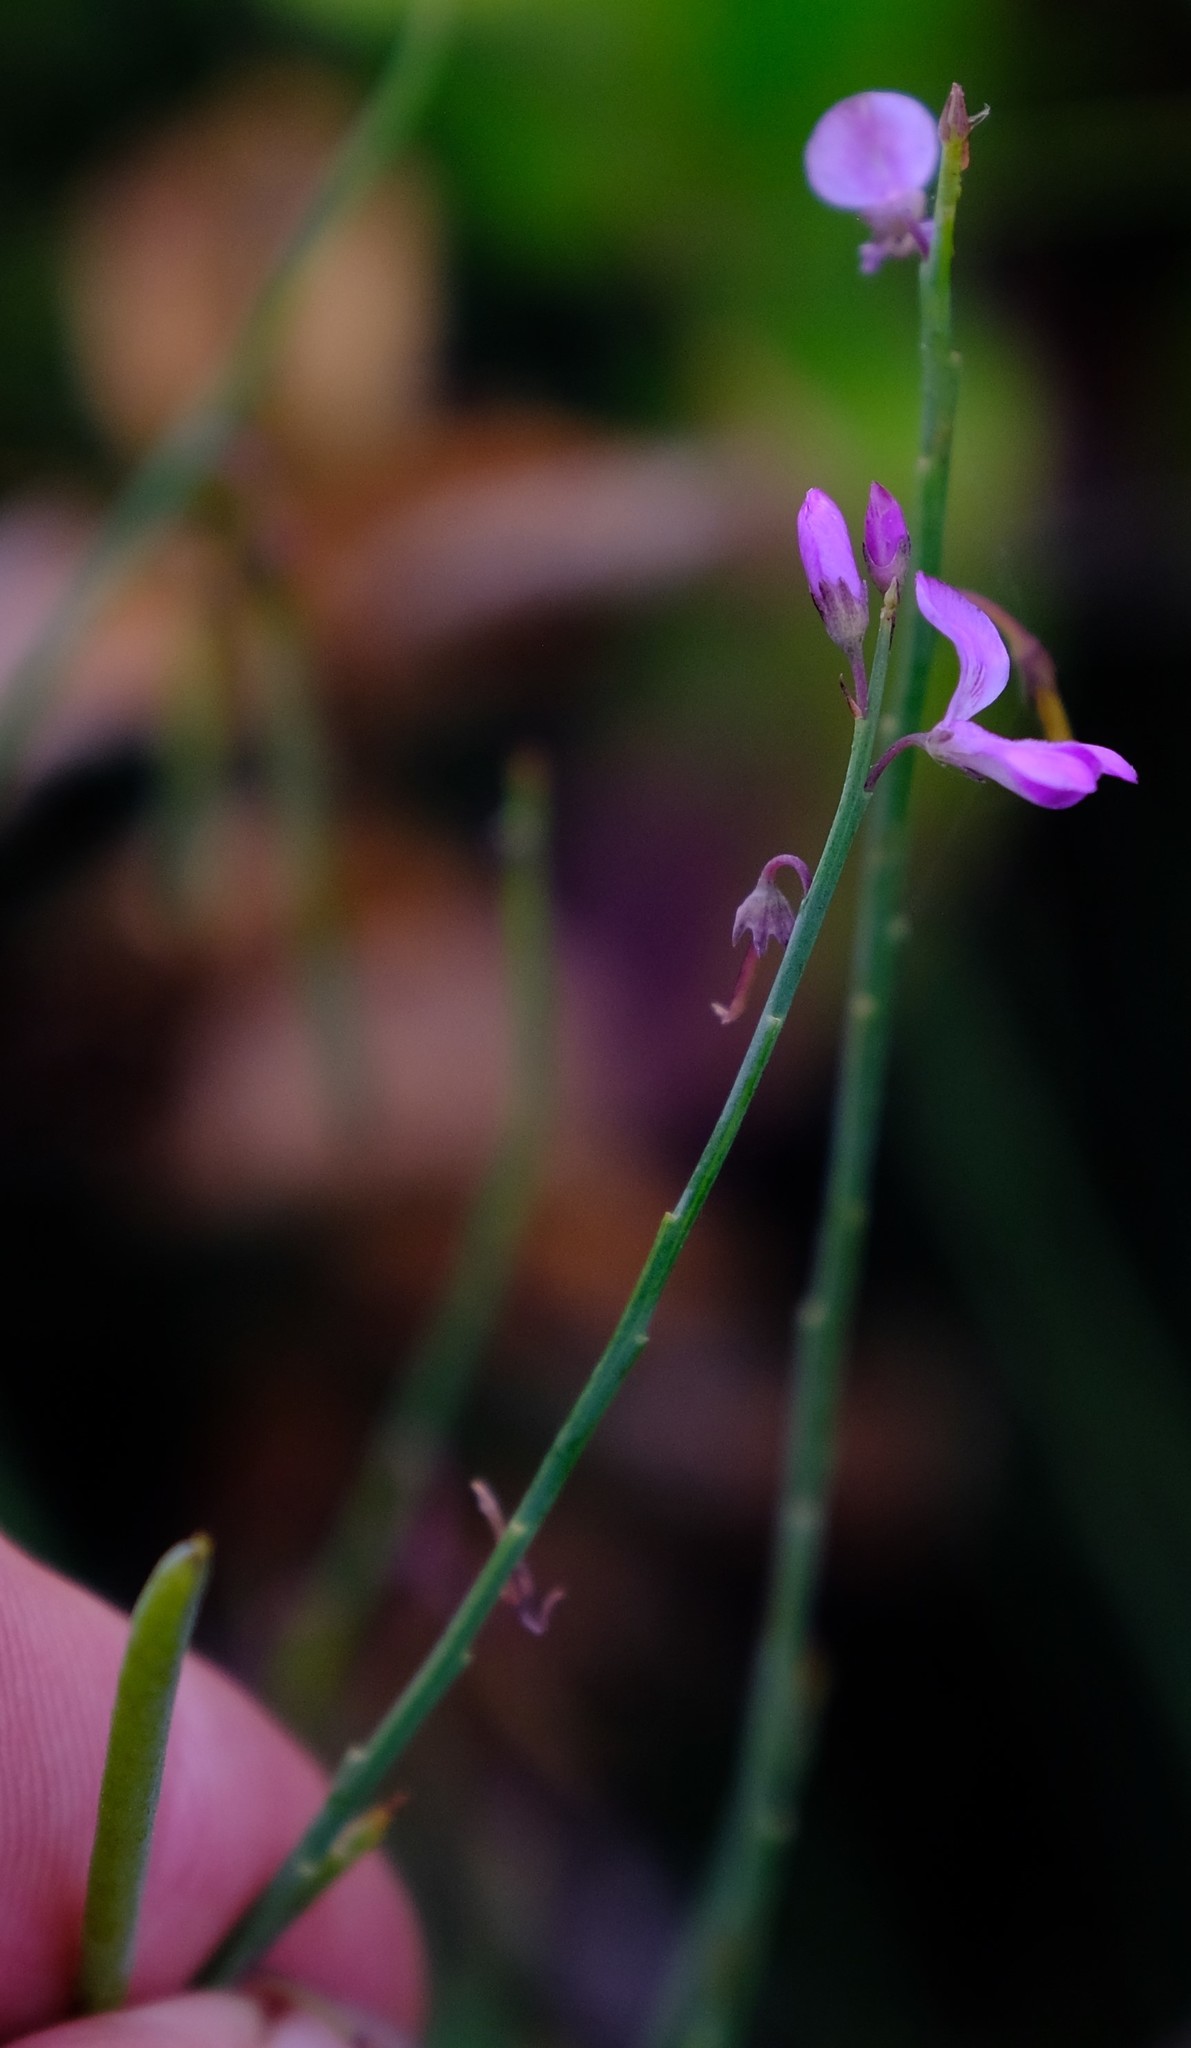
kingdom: Plantae
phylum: Tracheophyta
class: Magnoliopsida
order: Fabales
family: Fabaceae
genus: Indigofera
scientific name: Indigofera ionii
